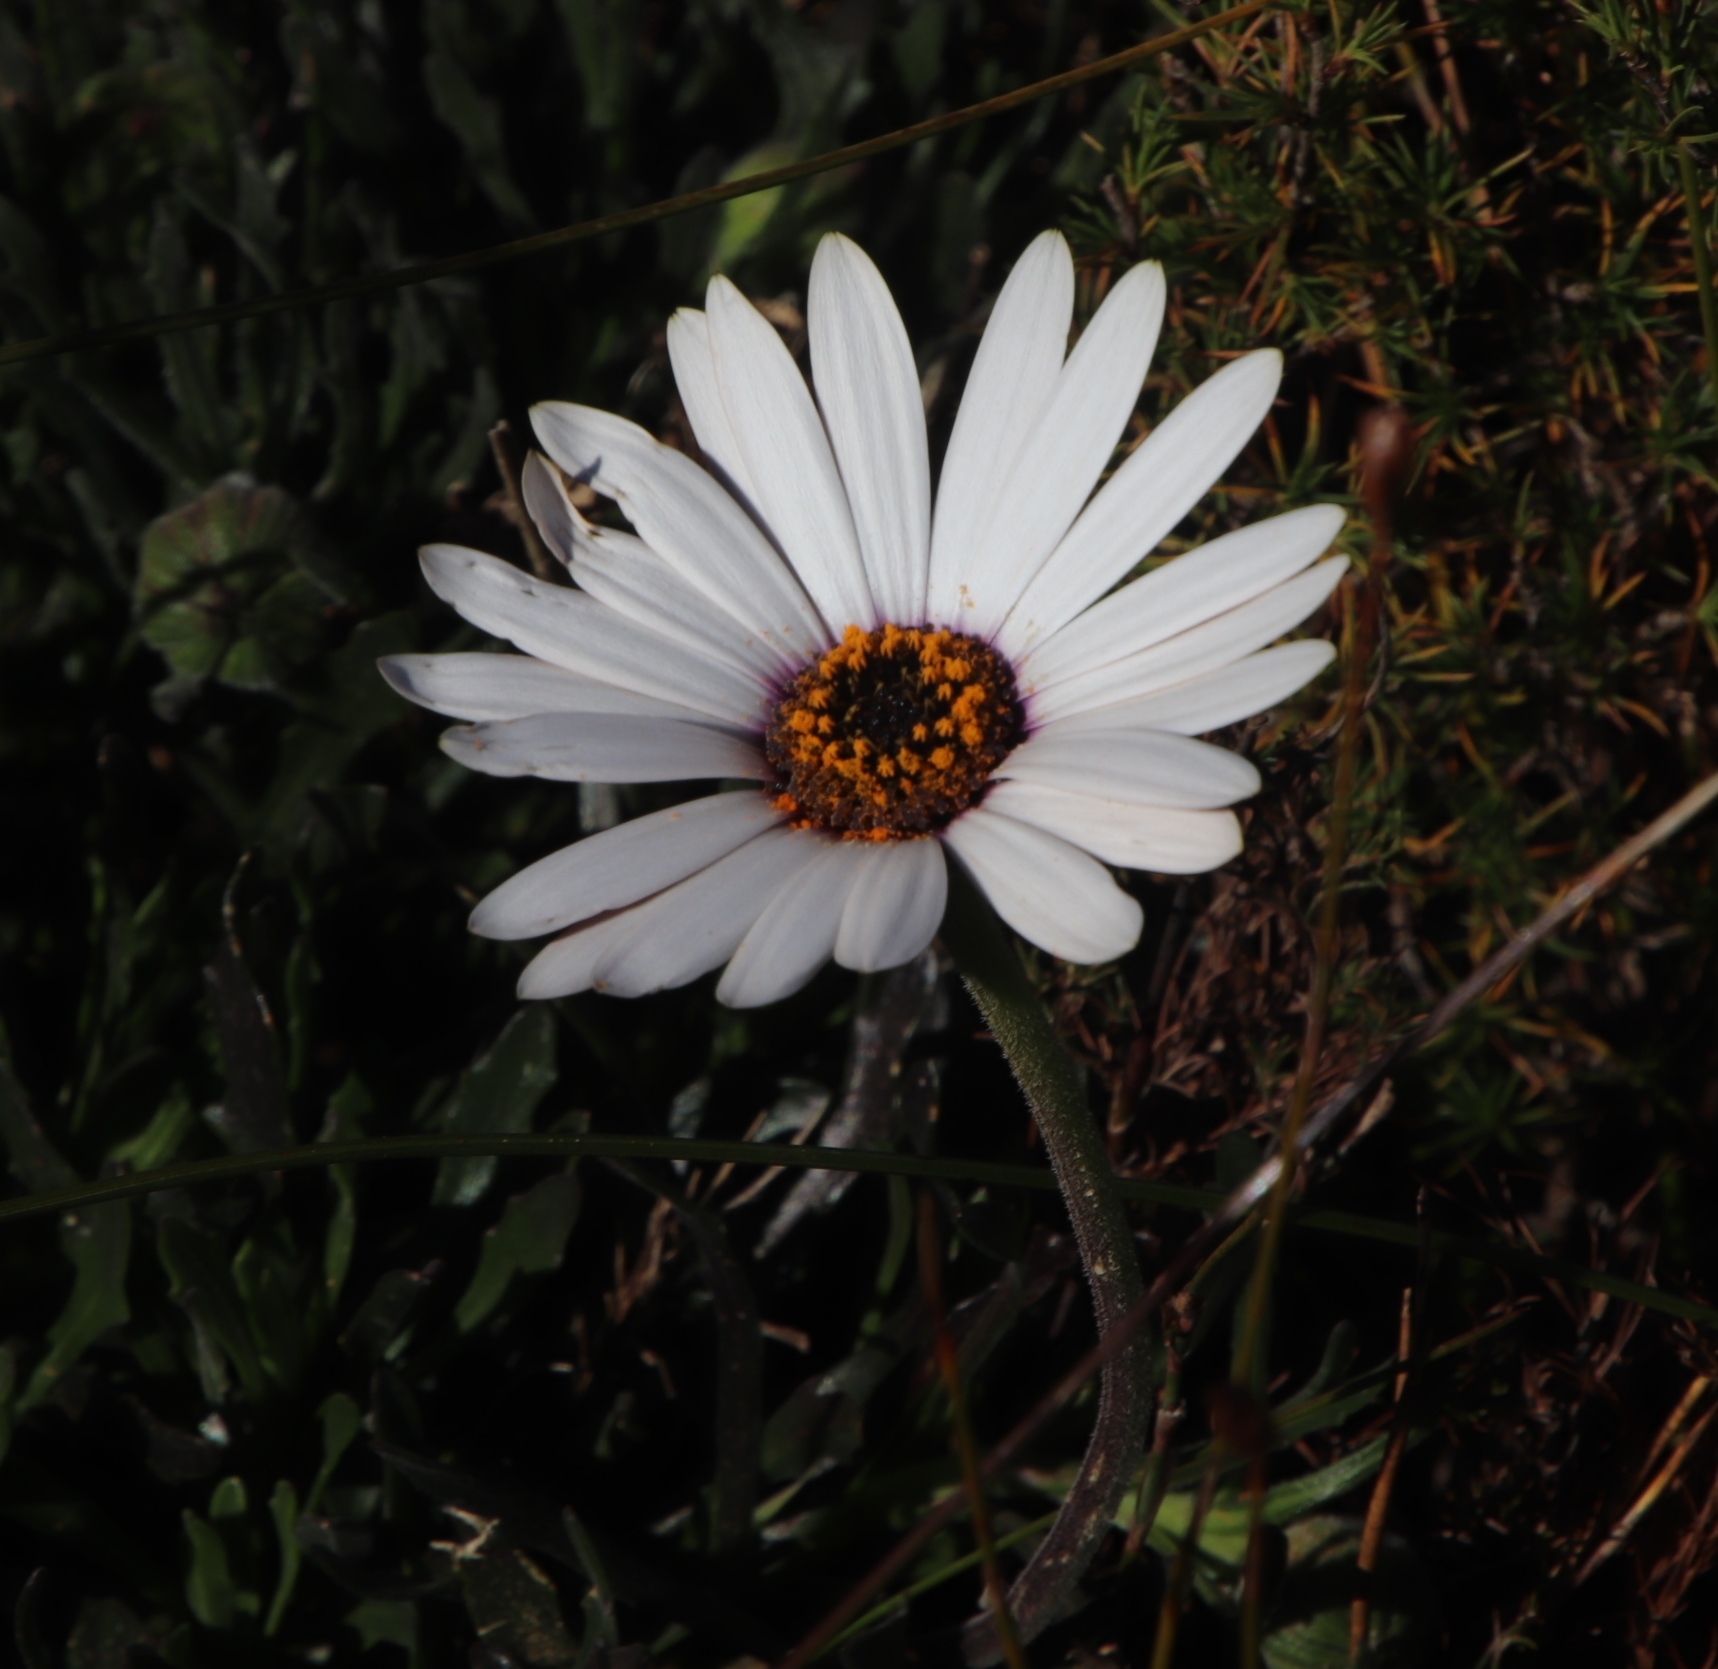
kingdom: Plantae
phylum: Tracheophyta
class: Magnoliopsida
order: Asterales
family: Asteraceae
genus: Dimorphotheca
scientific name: Dimorphotheca nudicaulis
